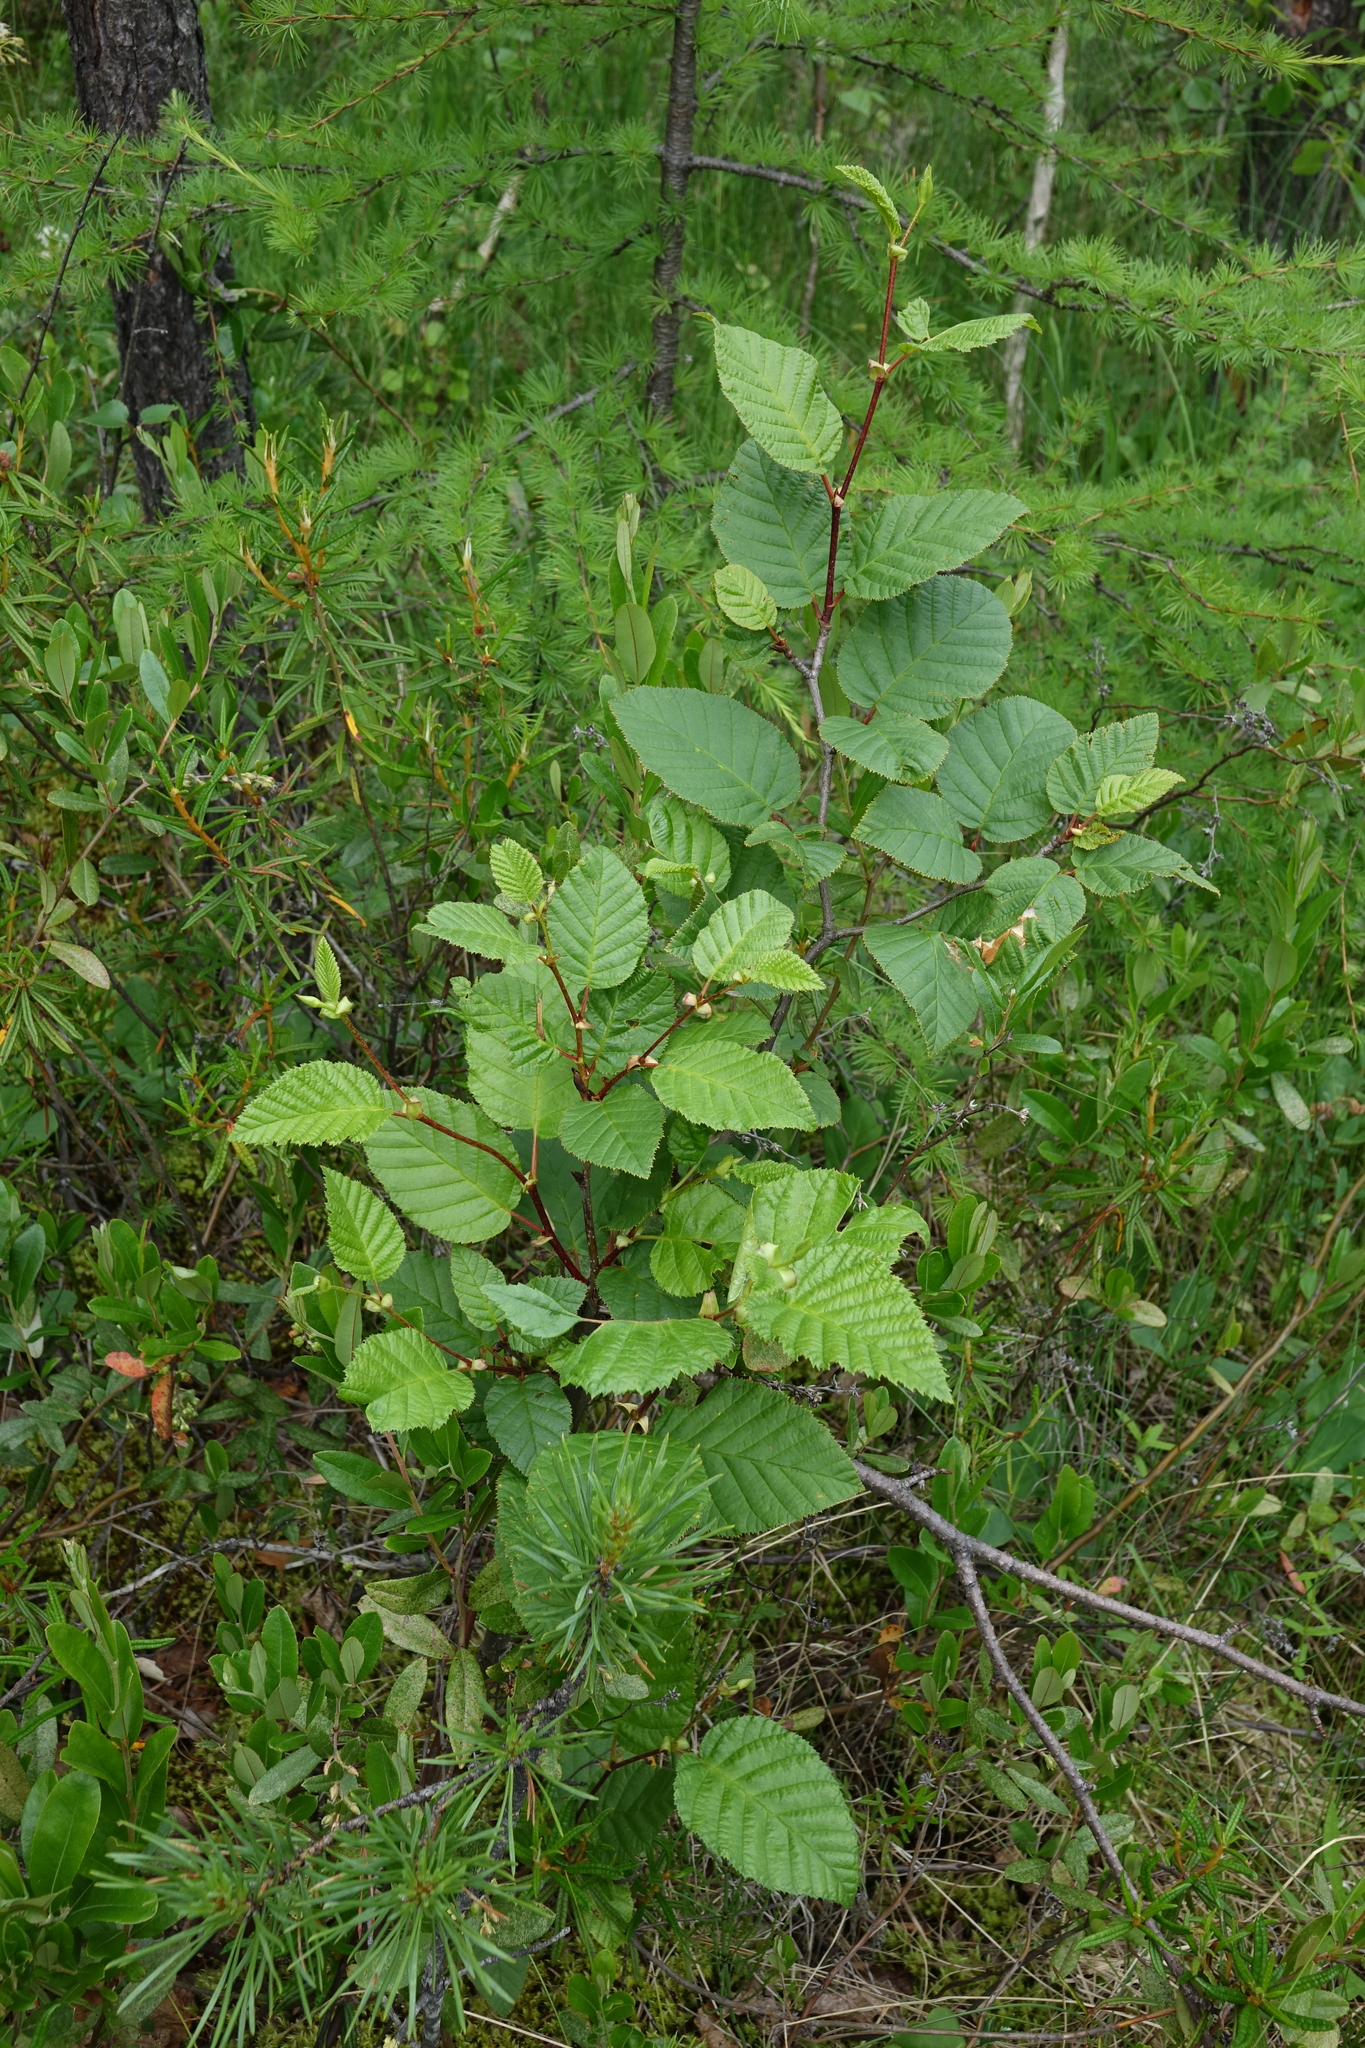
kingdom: Plantae
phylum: Tracheophyta
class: Magnoliopsida
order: Fagales
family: Betulaceae
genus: Alnus
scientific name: Alnus alnobetula
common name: Green alder
